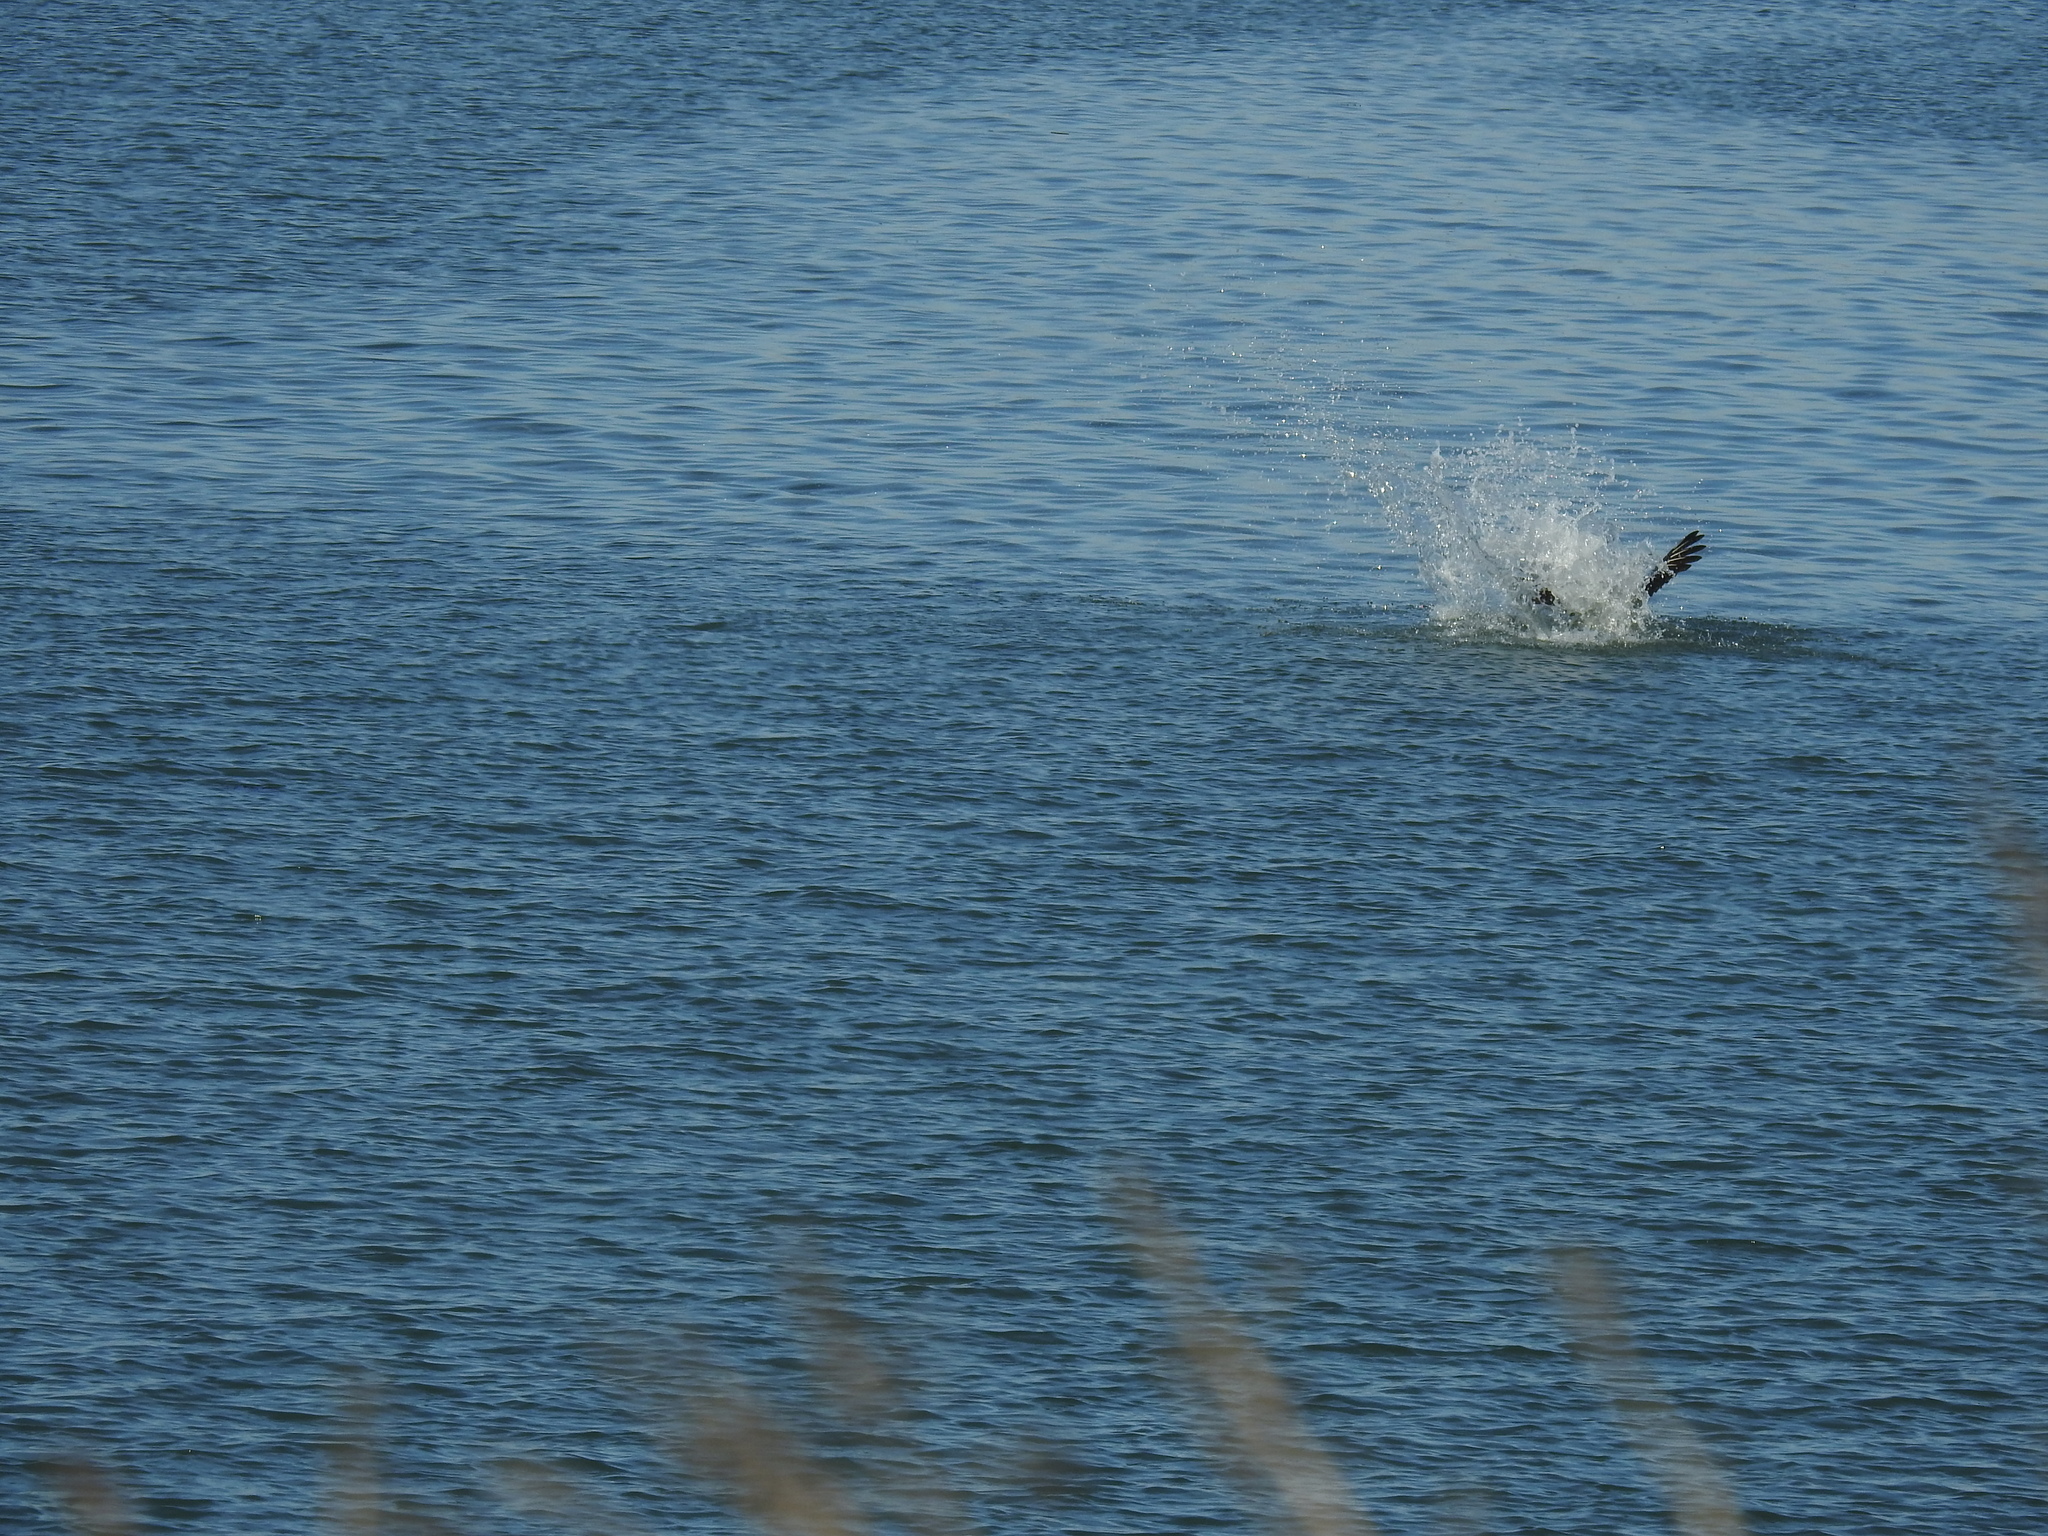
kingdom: Animalia
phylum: Chordata
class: Aves
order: Pelecaniformes
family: Pelecanidae
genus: Pelecanus
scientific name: Pelecanus occidentalis
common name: Brown pelican
